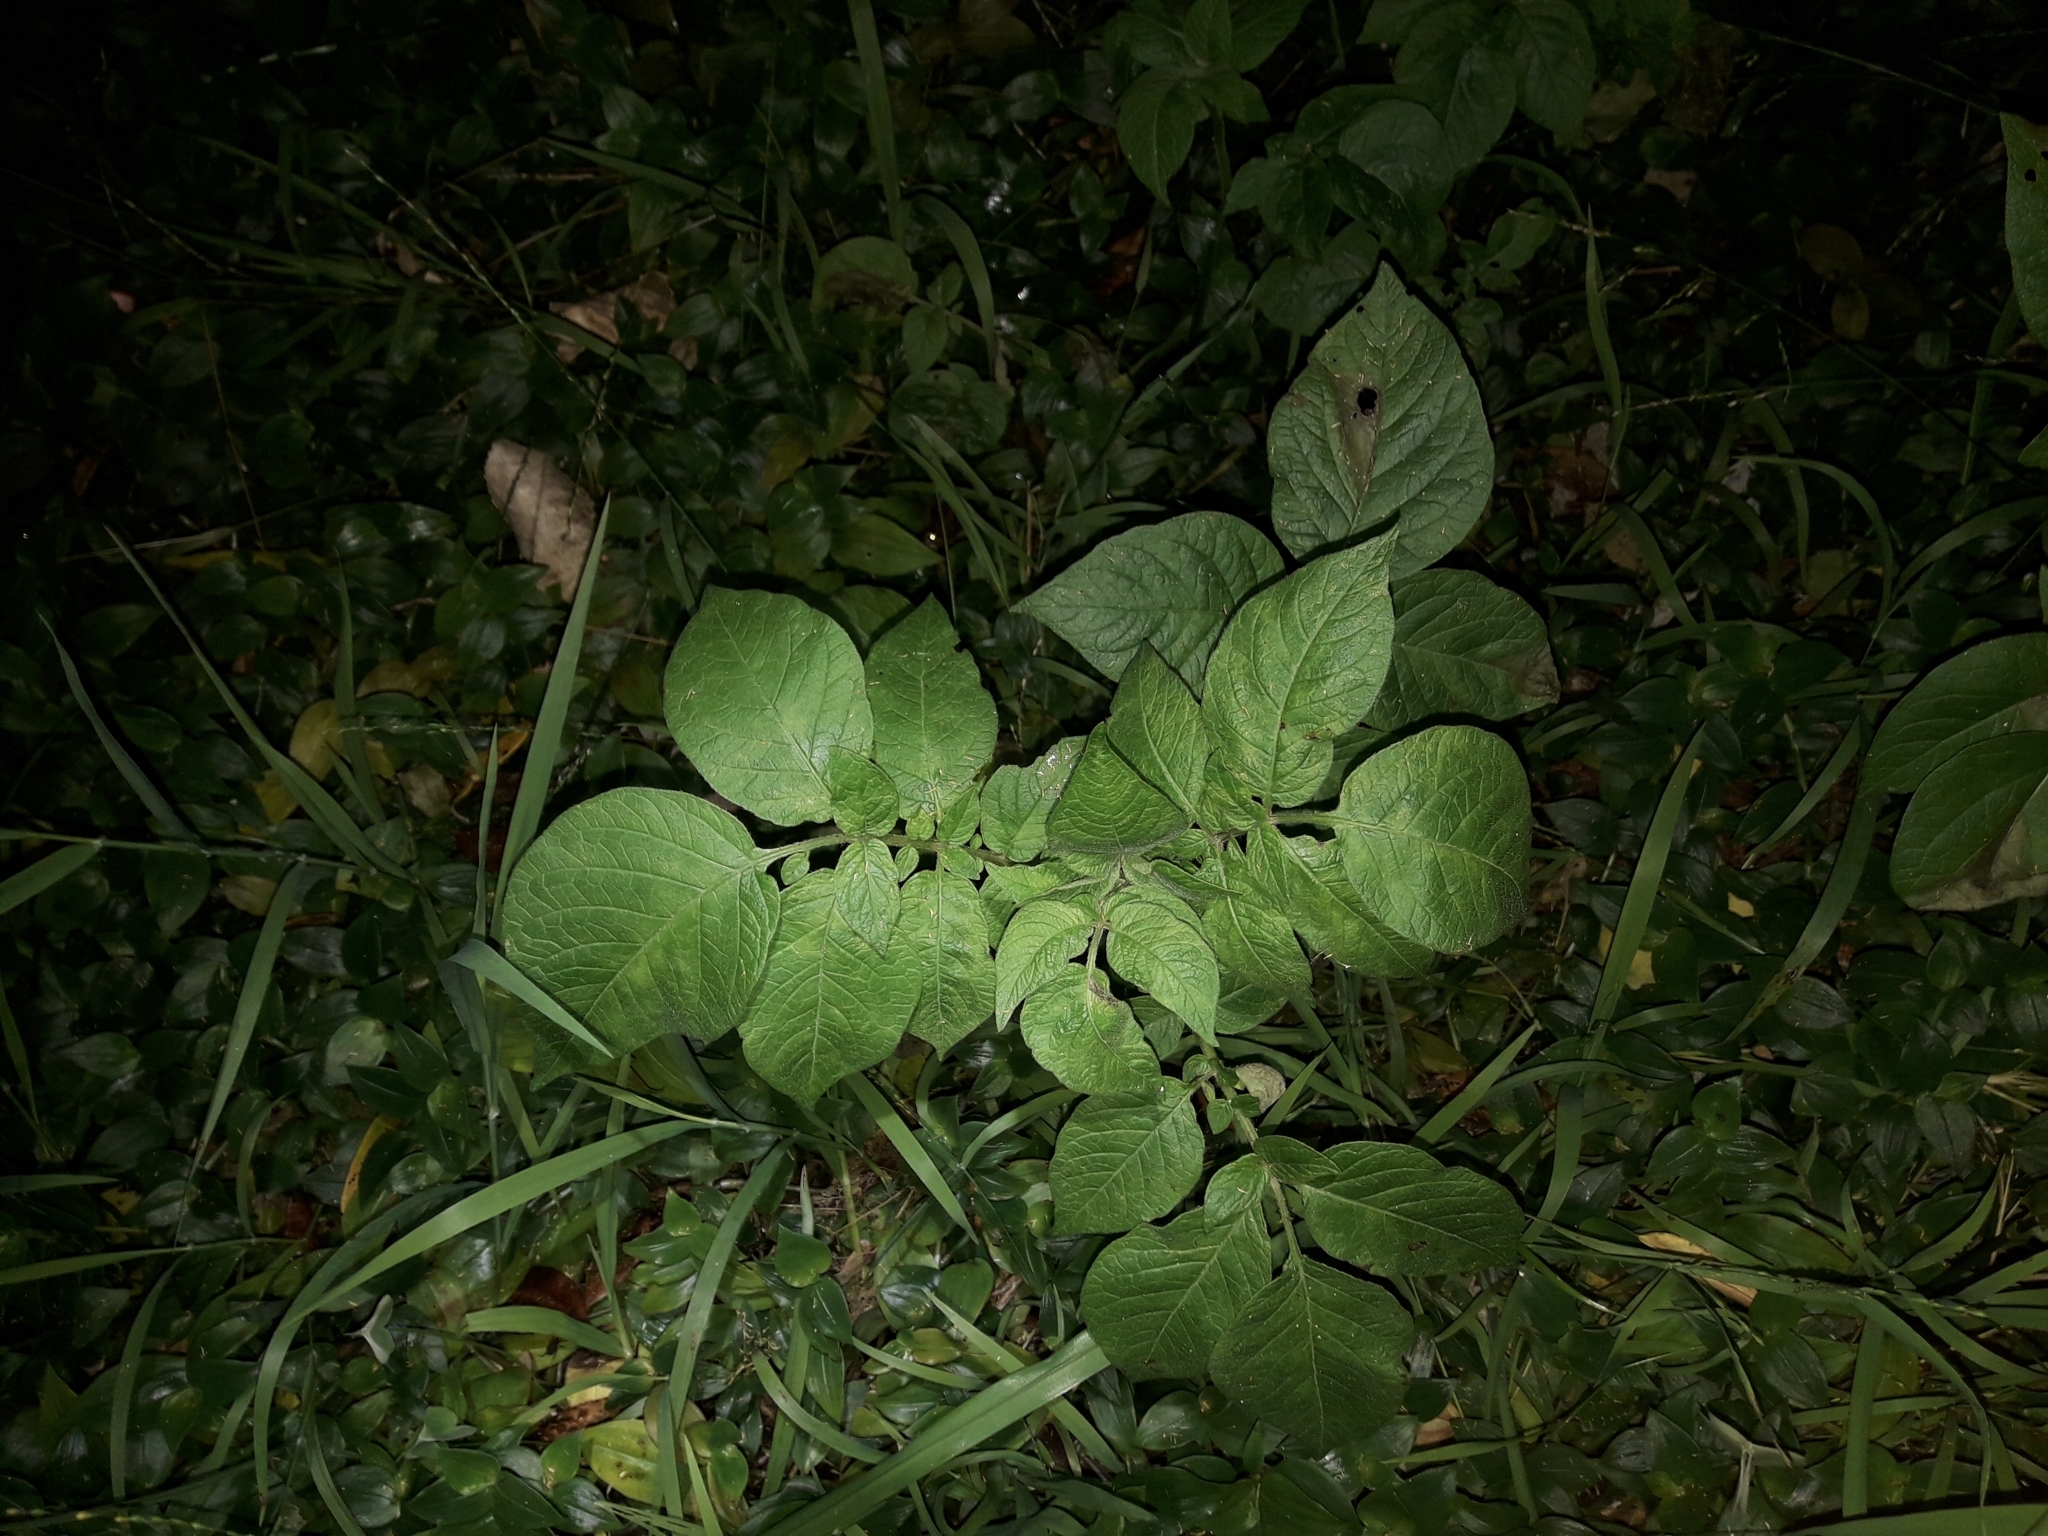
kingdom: Plantae
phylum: Tracheophyta
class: Magnoliopsida
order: Solanales
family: Solanaceae
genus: Solanum
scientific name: Solanum tuberosum
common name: Potato
